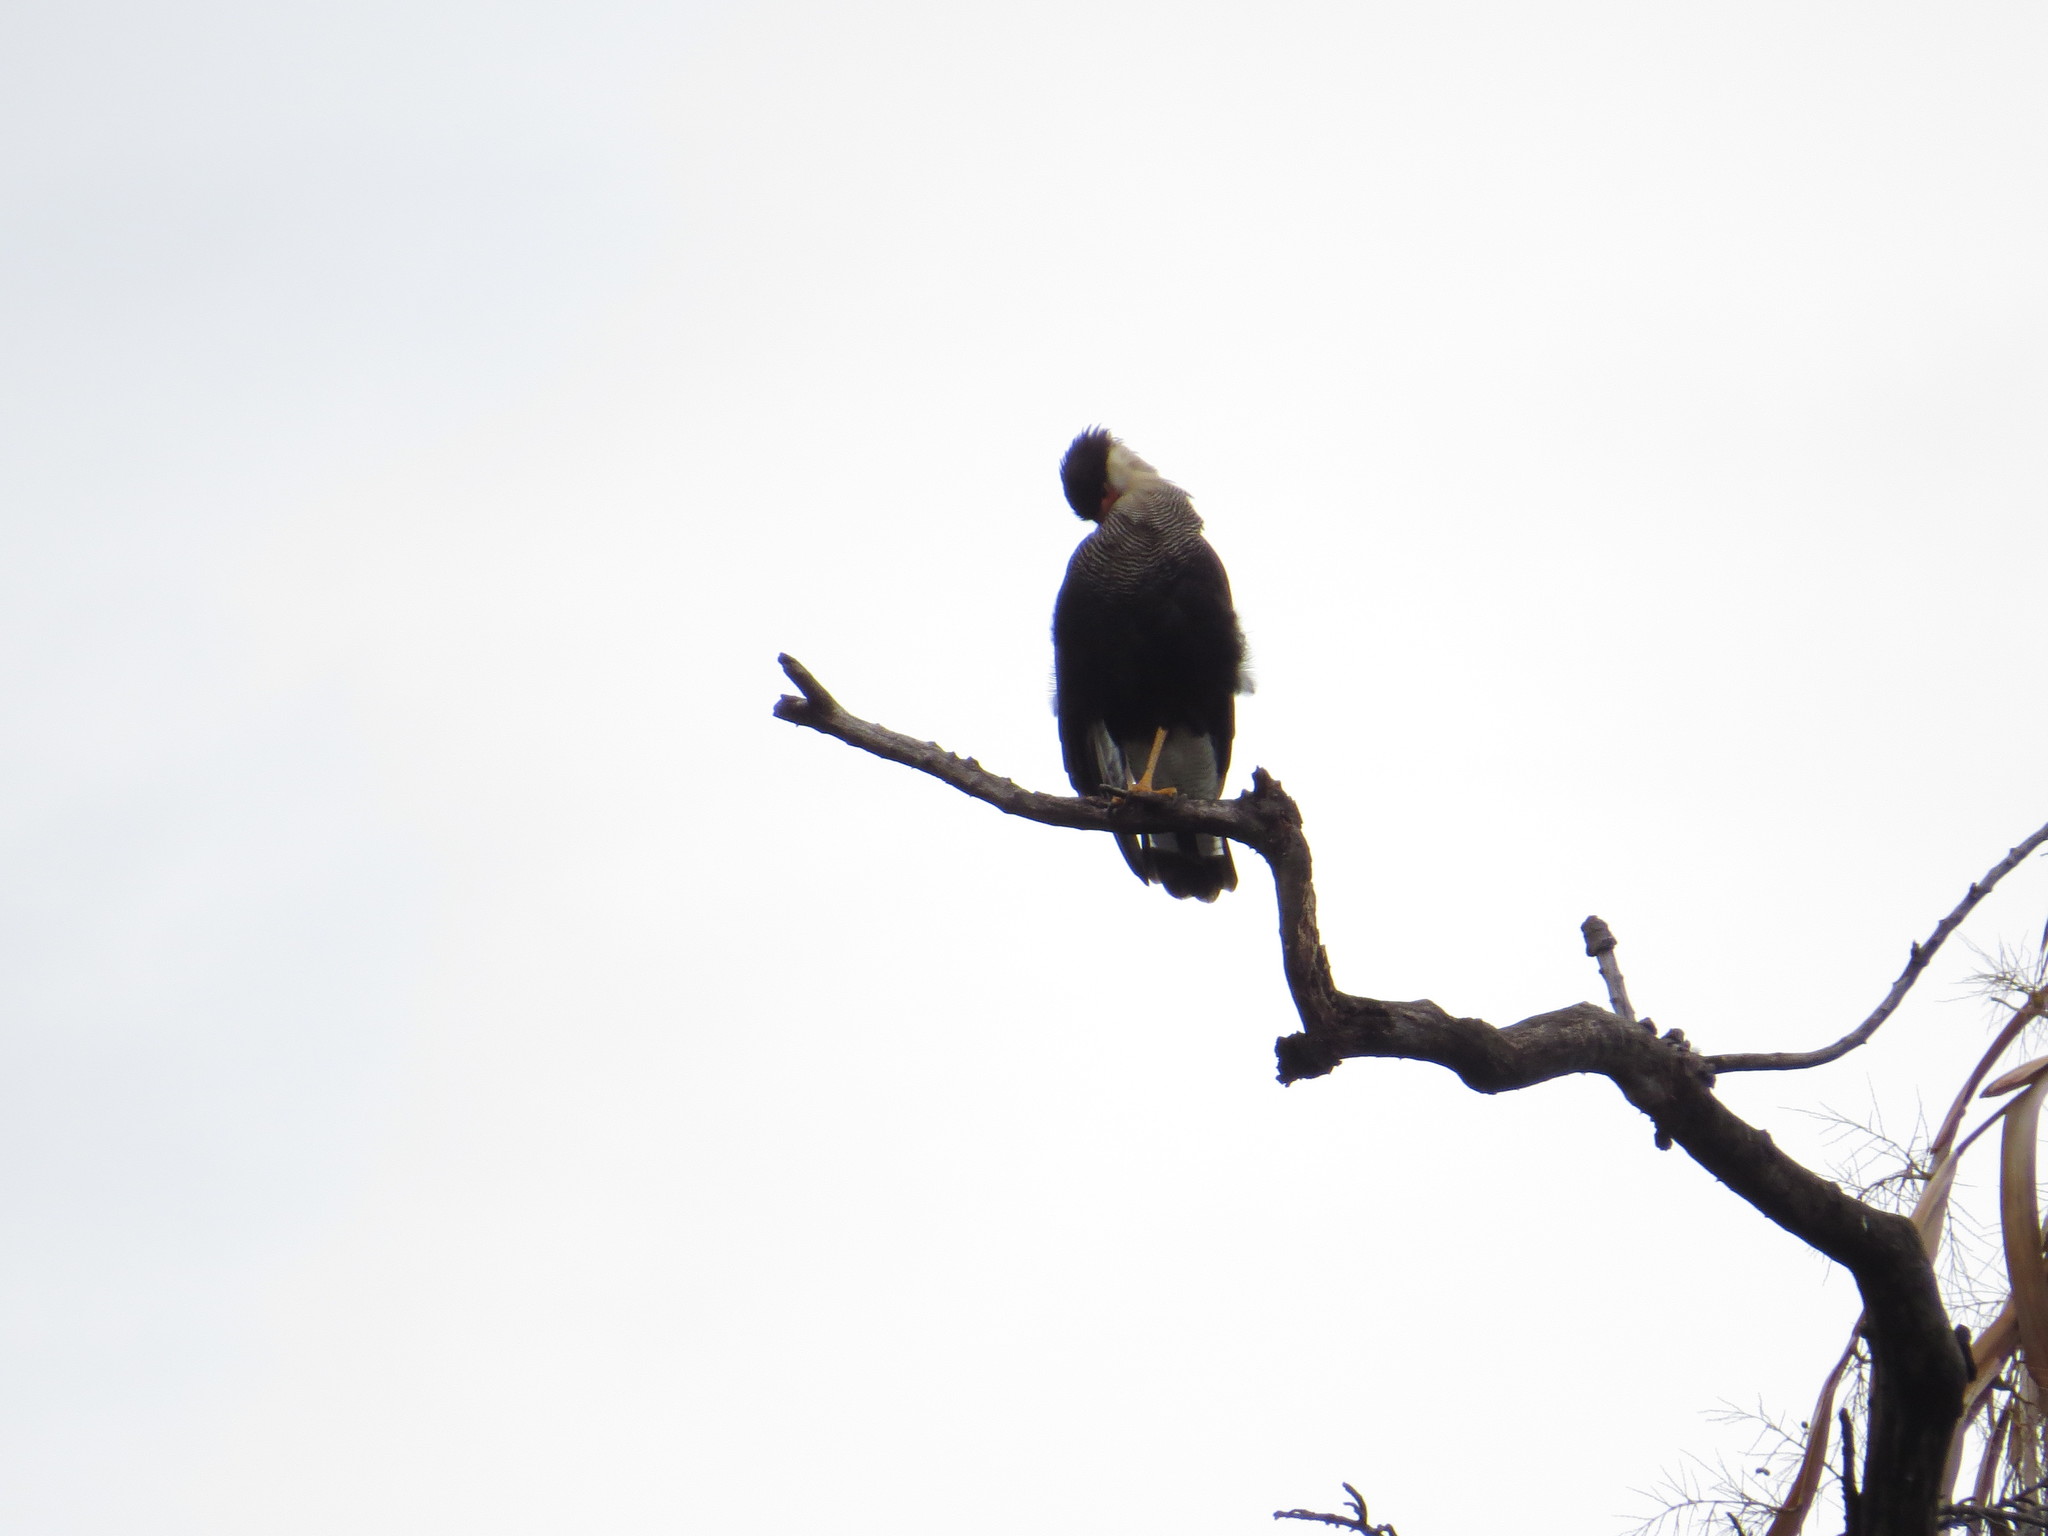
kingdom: Animalia
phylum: Chordata
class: Aves
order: Falconiformes
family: Falconidae
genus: Caracara
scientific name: Caracara plancus
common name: Southern caracara
